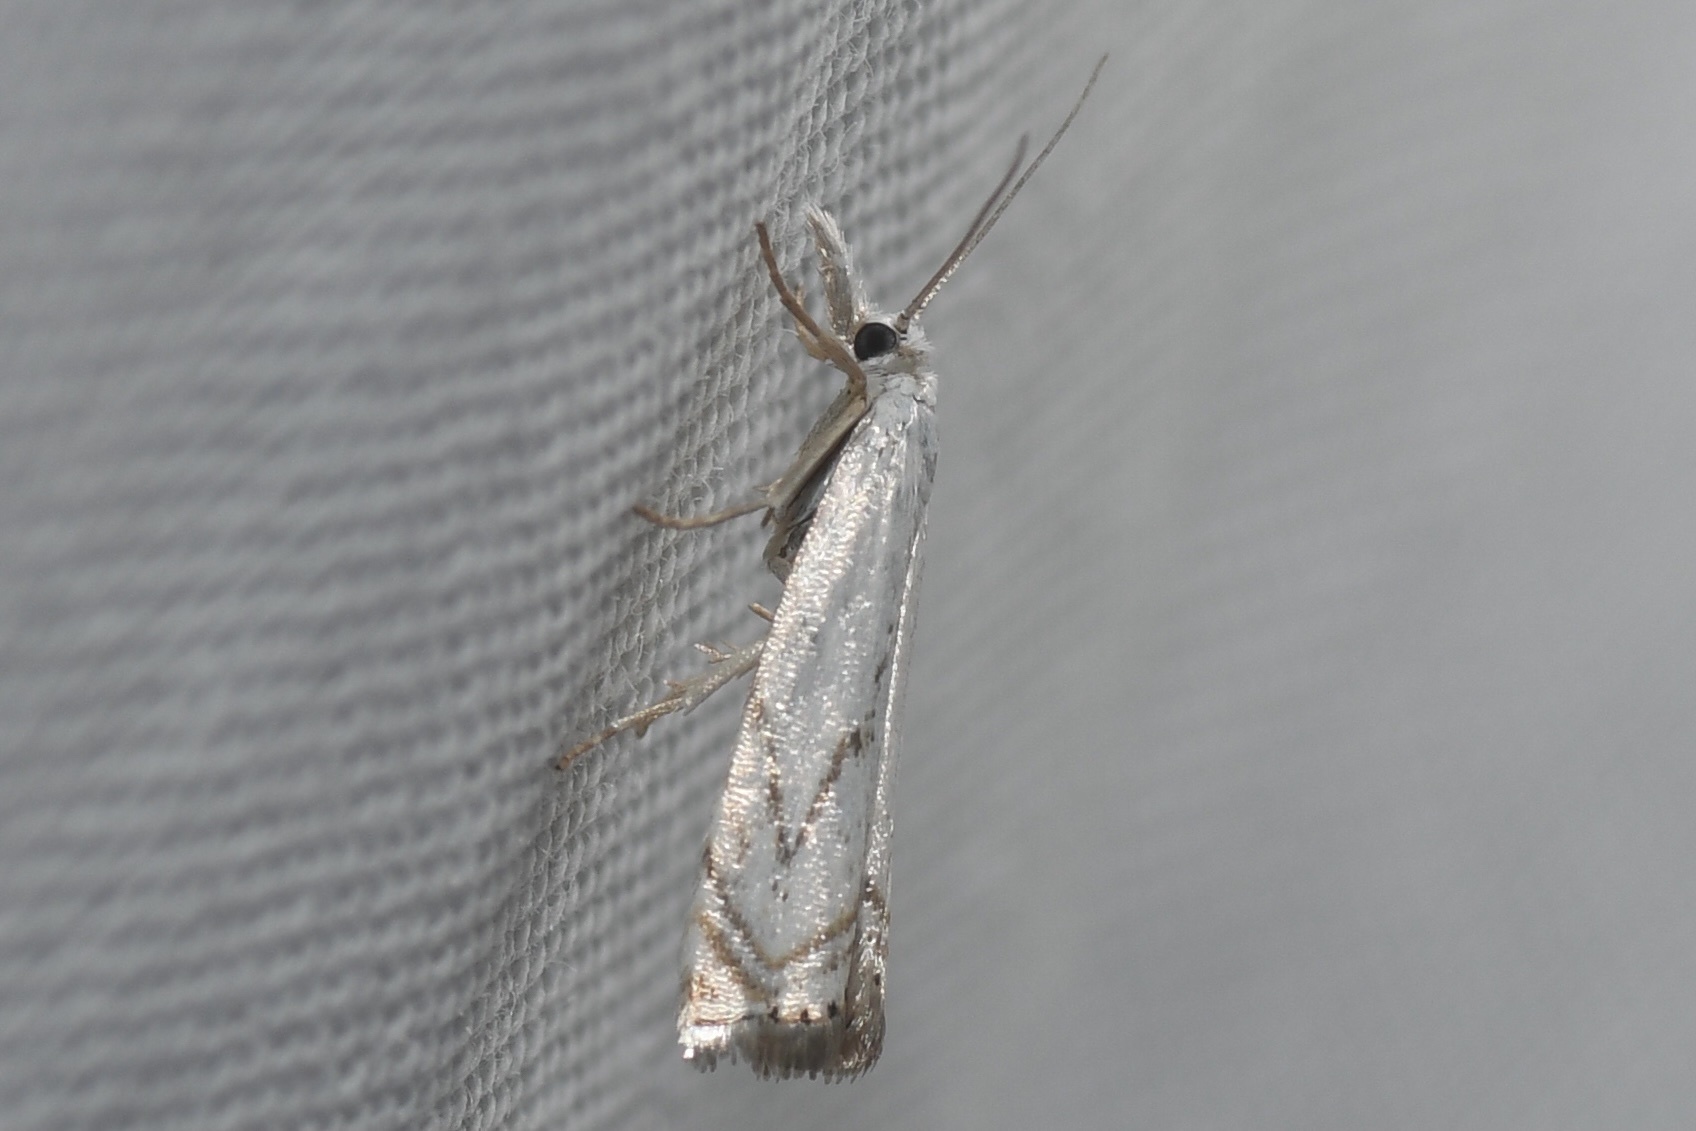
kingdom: Animalia
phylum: Arthropoda
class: Insecta
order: Lepidoptera
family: Crambidae
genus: Crambus
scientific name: Crambus albellus
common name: Small white grass-veneer
